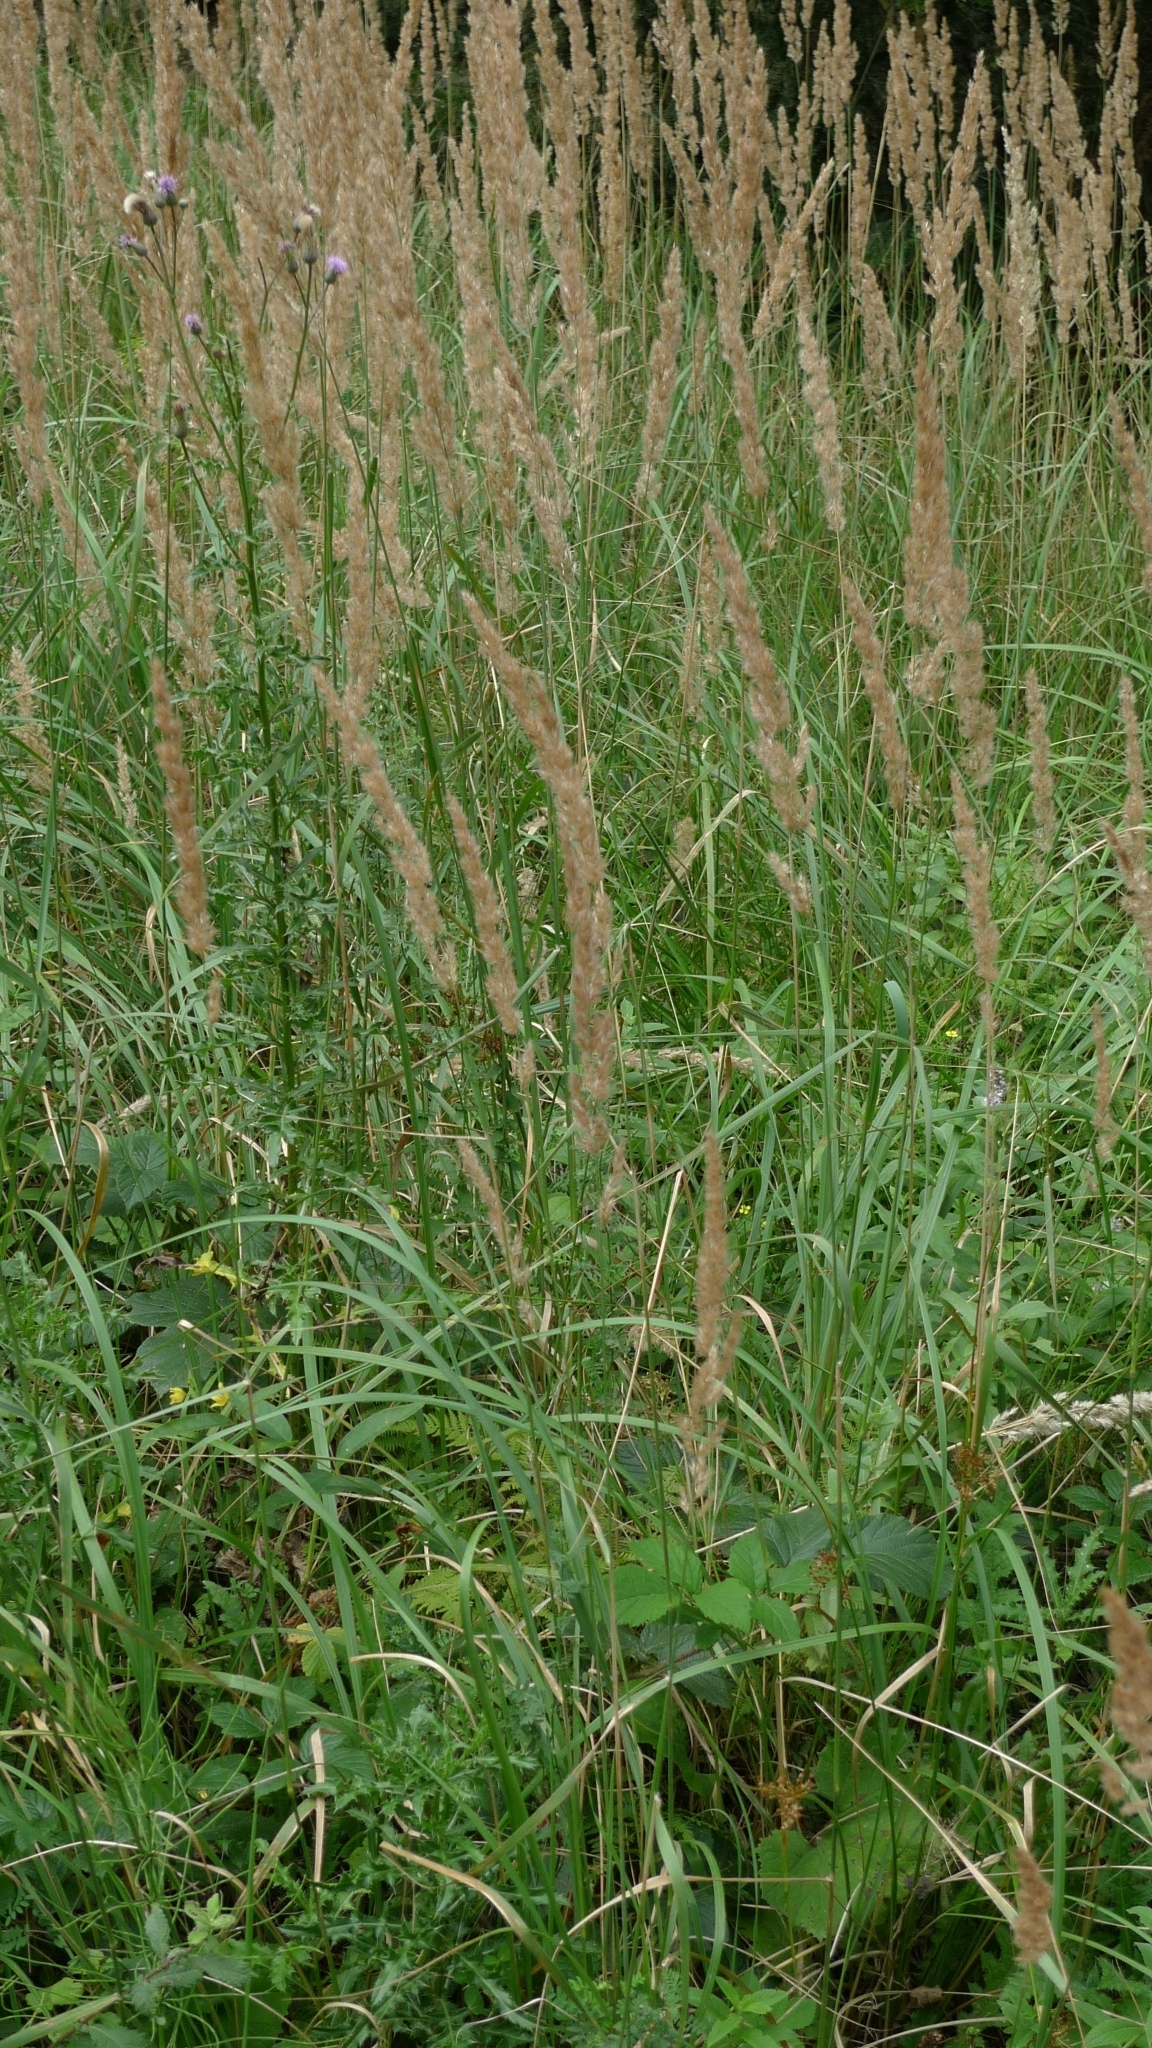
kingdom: Plantae
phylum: Tracheophyta
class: Liliopsida
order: Poales
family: Poaceae
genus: Calamagrostis
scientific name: Calamagrostis epigejos
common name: Wood small-reed
